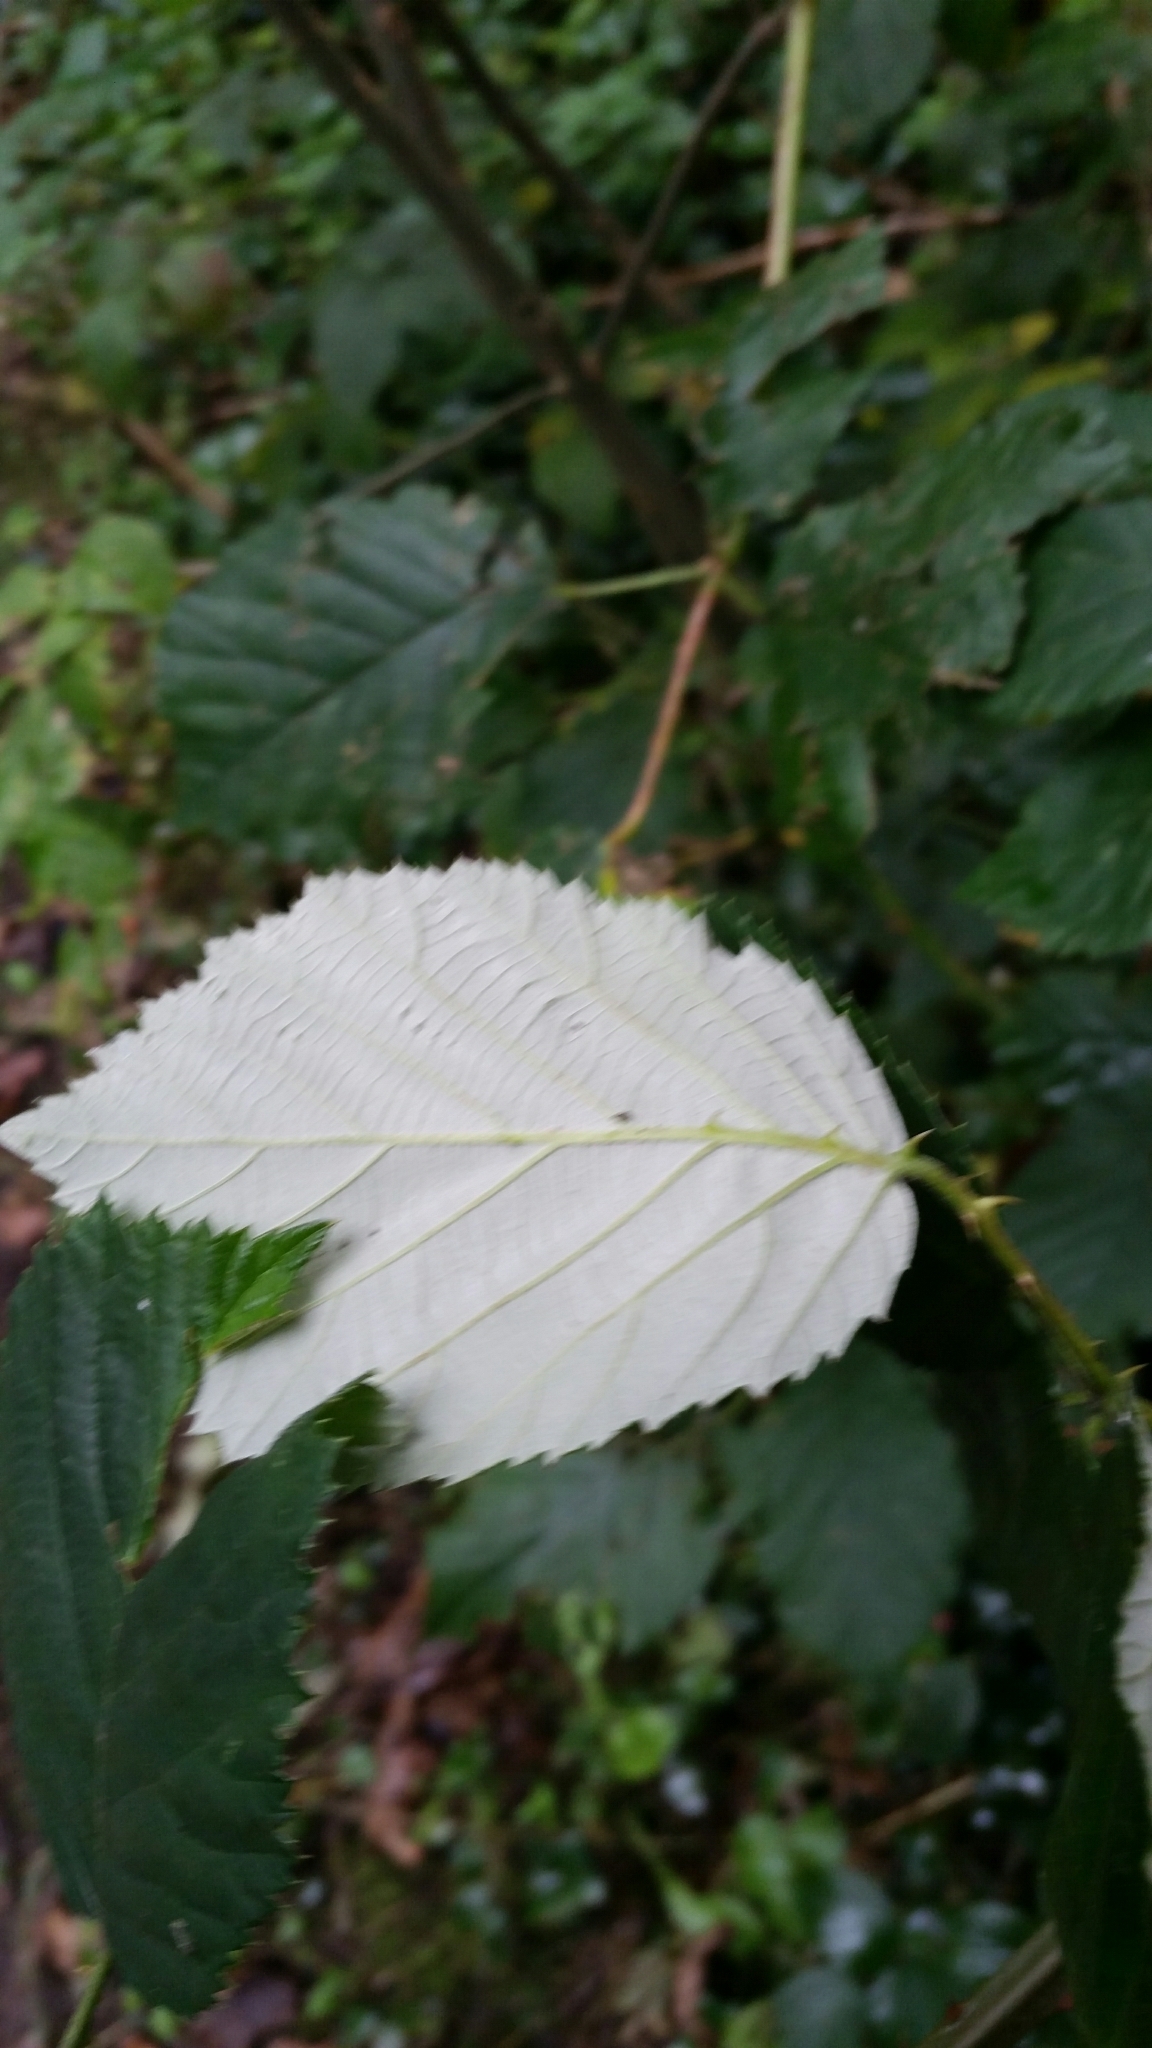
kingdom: Plantae
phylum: Tracheophyta
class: Magnoliopsida
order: Rosales
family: Rosaceae
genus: Rubus
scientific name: Rubus armeniacus
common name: Himalayan blackberry
